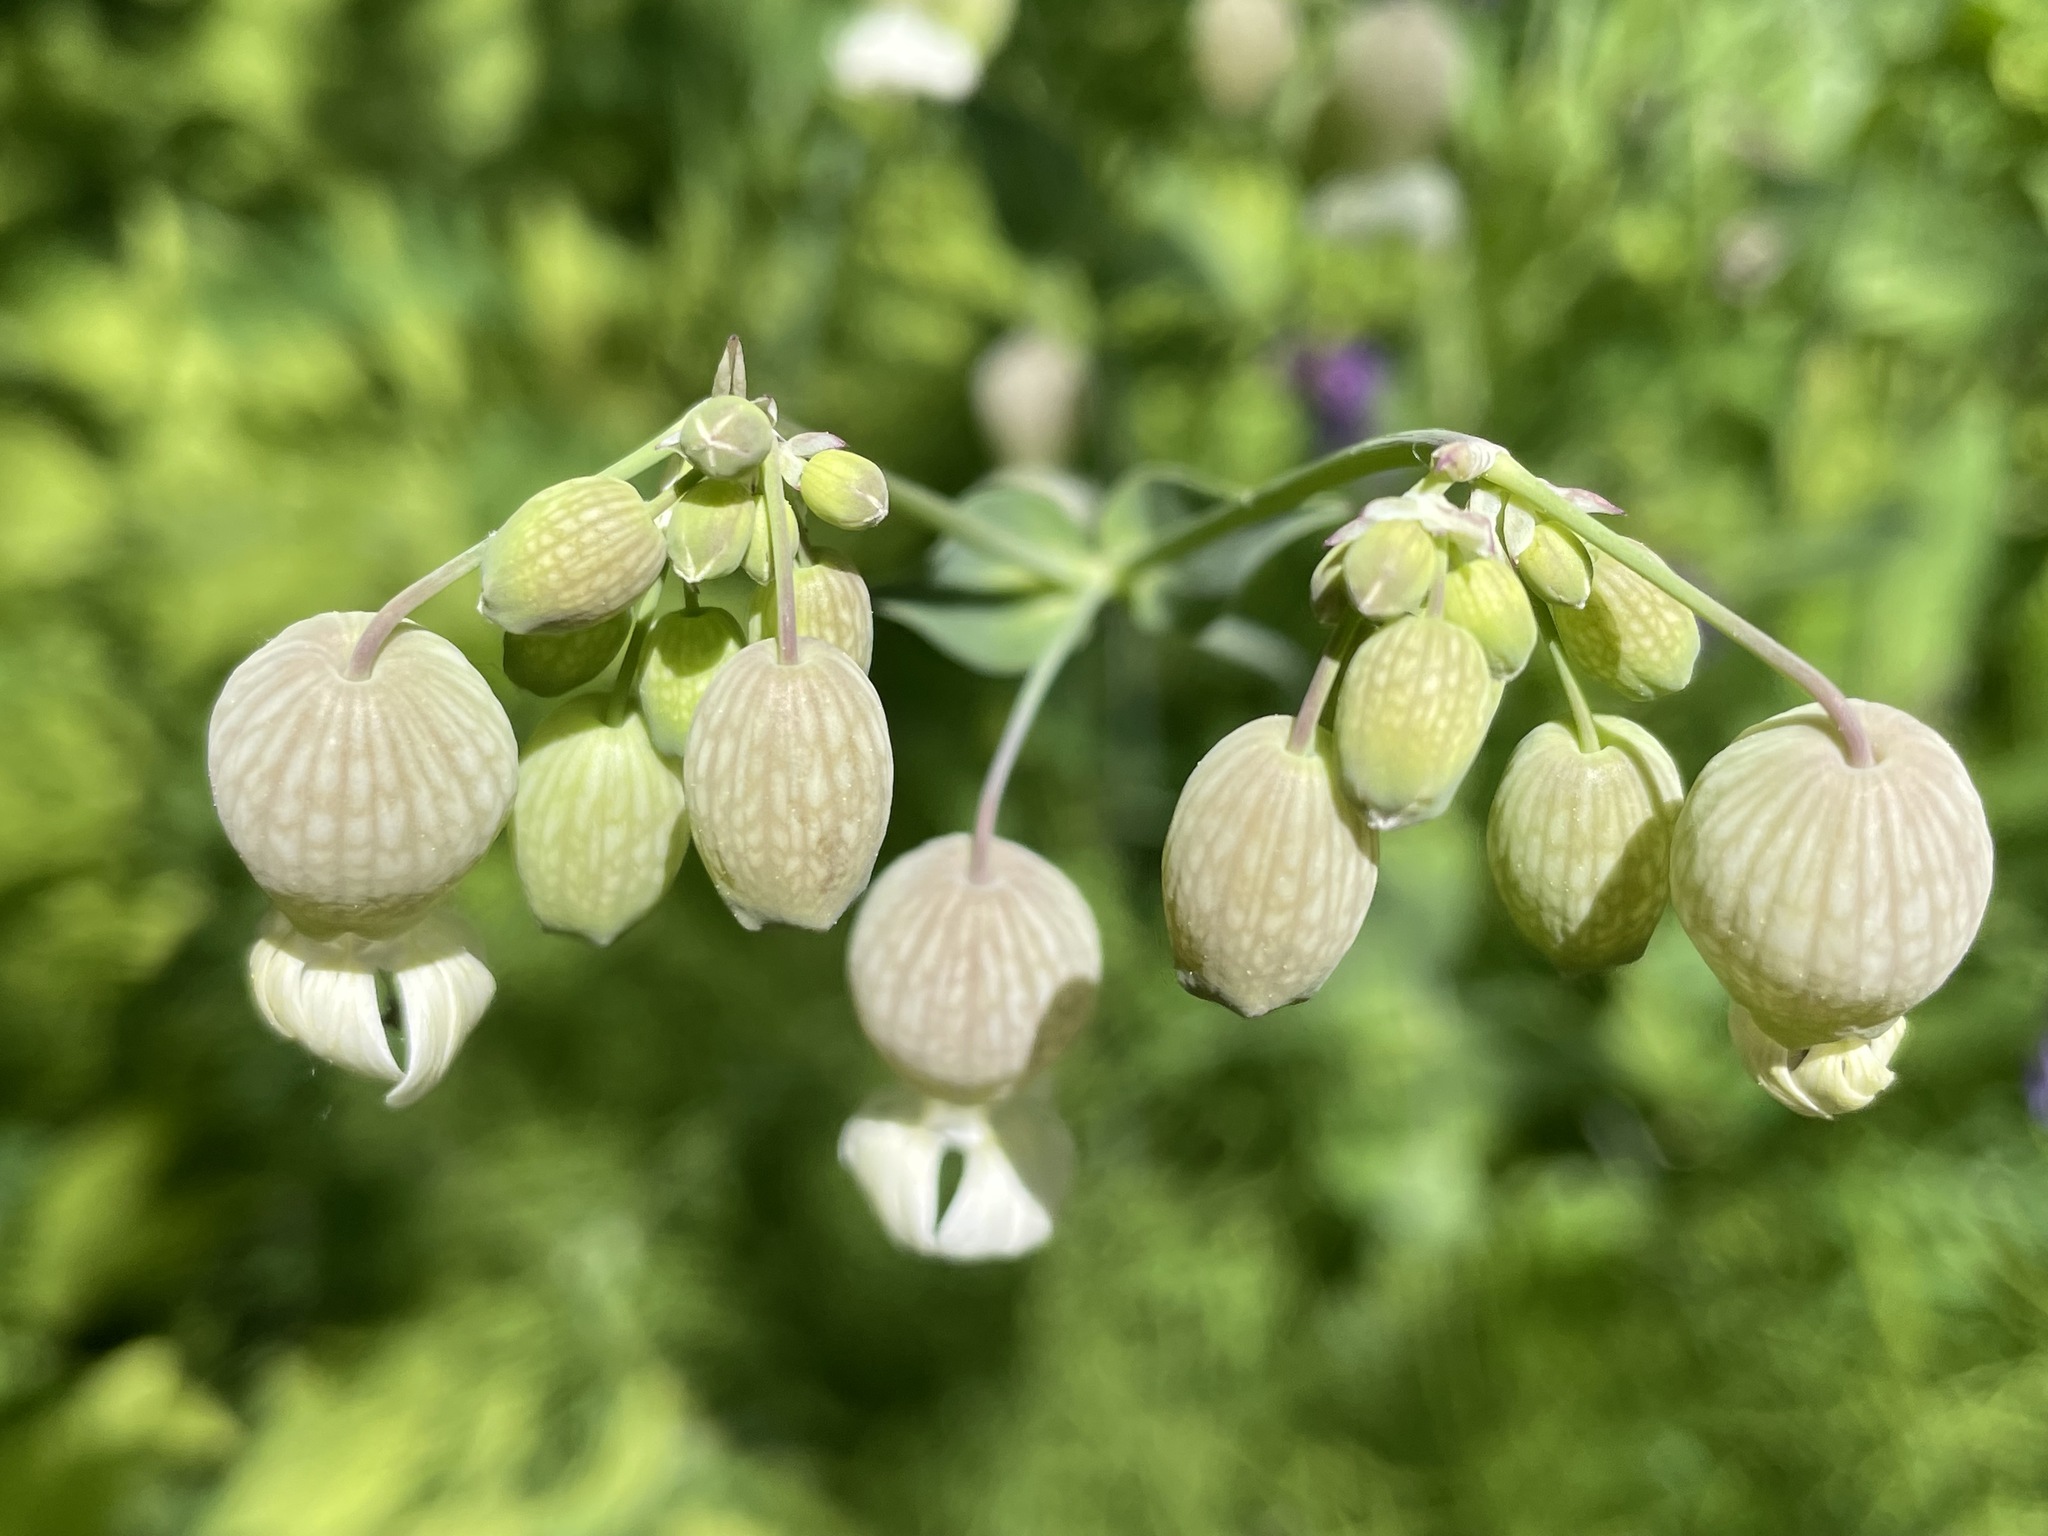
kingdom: Plantae
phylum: Tracheophyta
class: Magnoliopsida
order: Caryophyllales
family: Caryophyllaceae
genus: Silene
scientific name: Silene vulgaris
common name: Bladder campion
